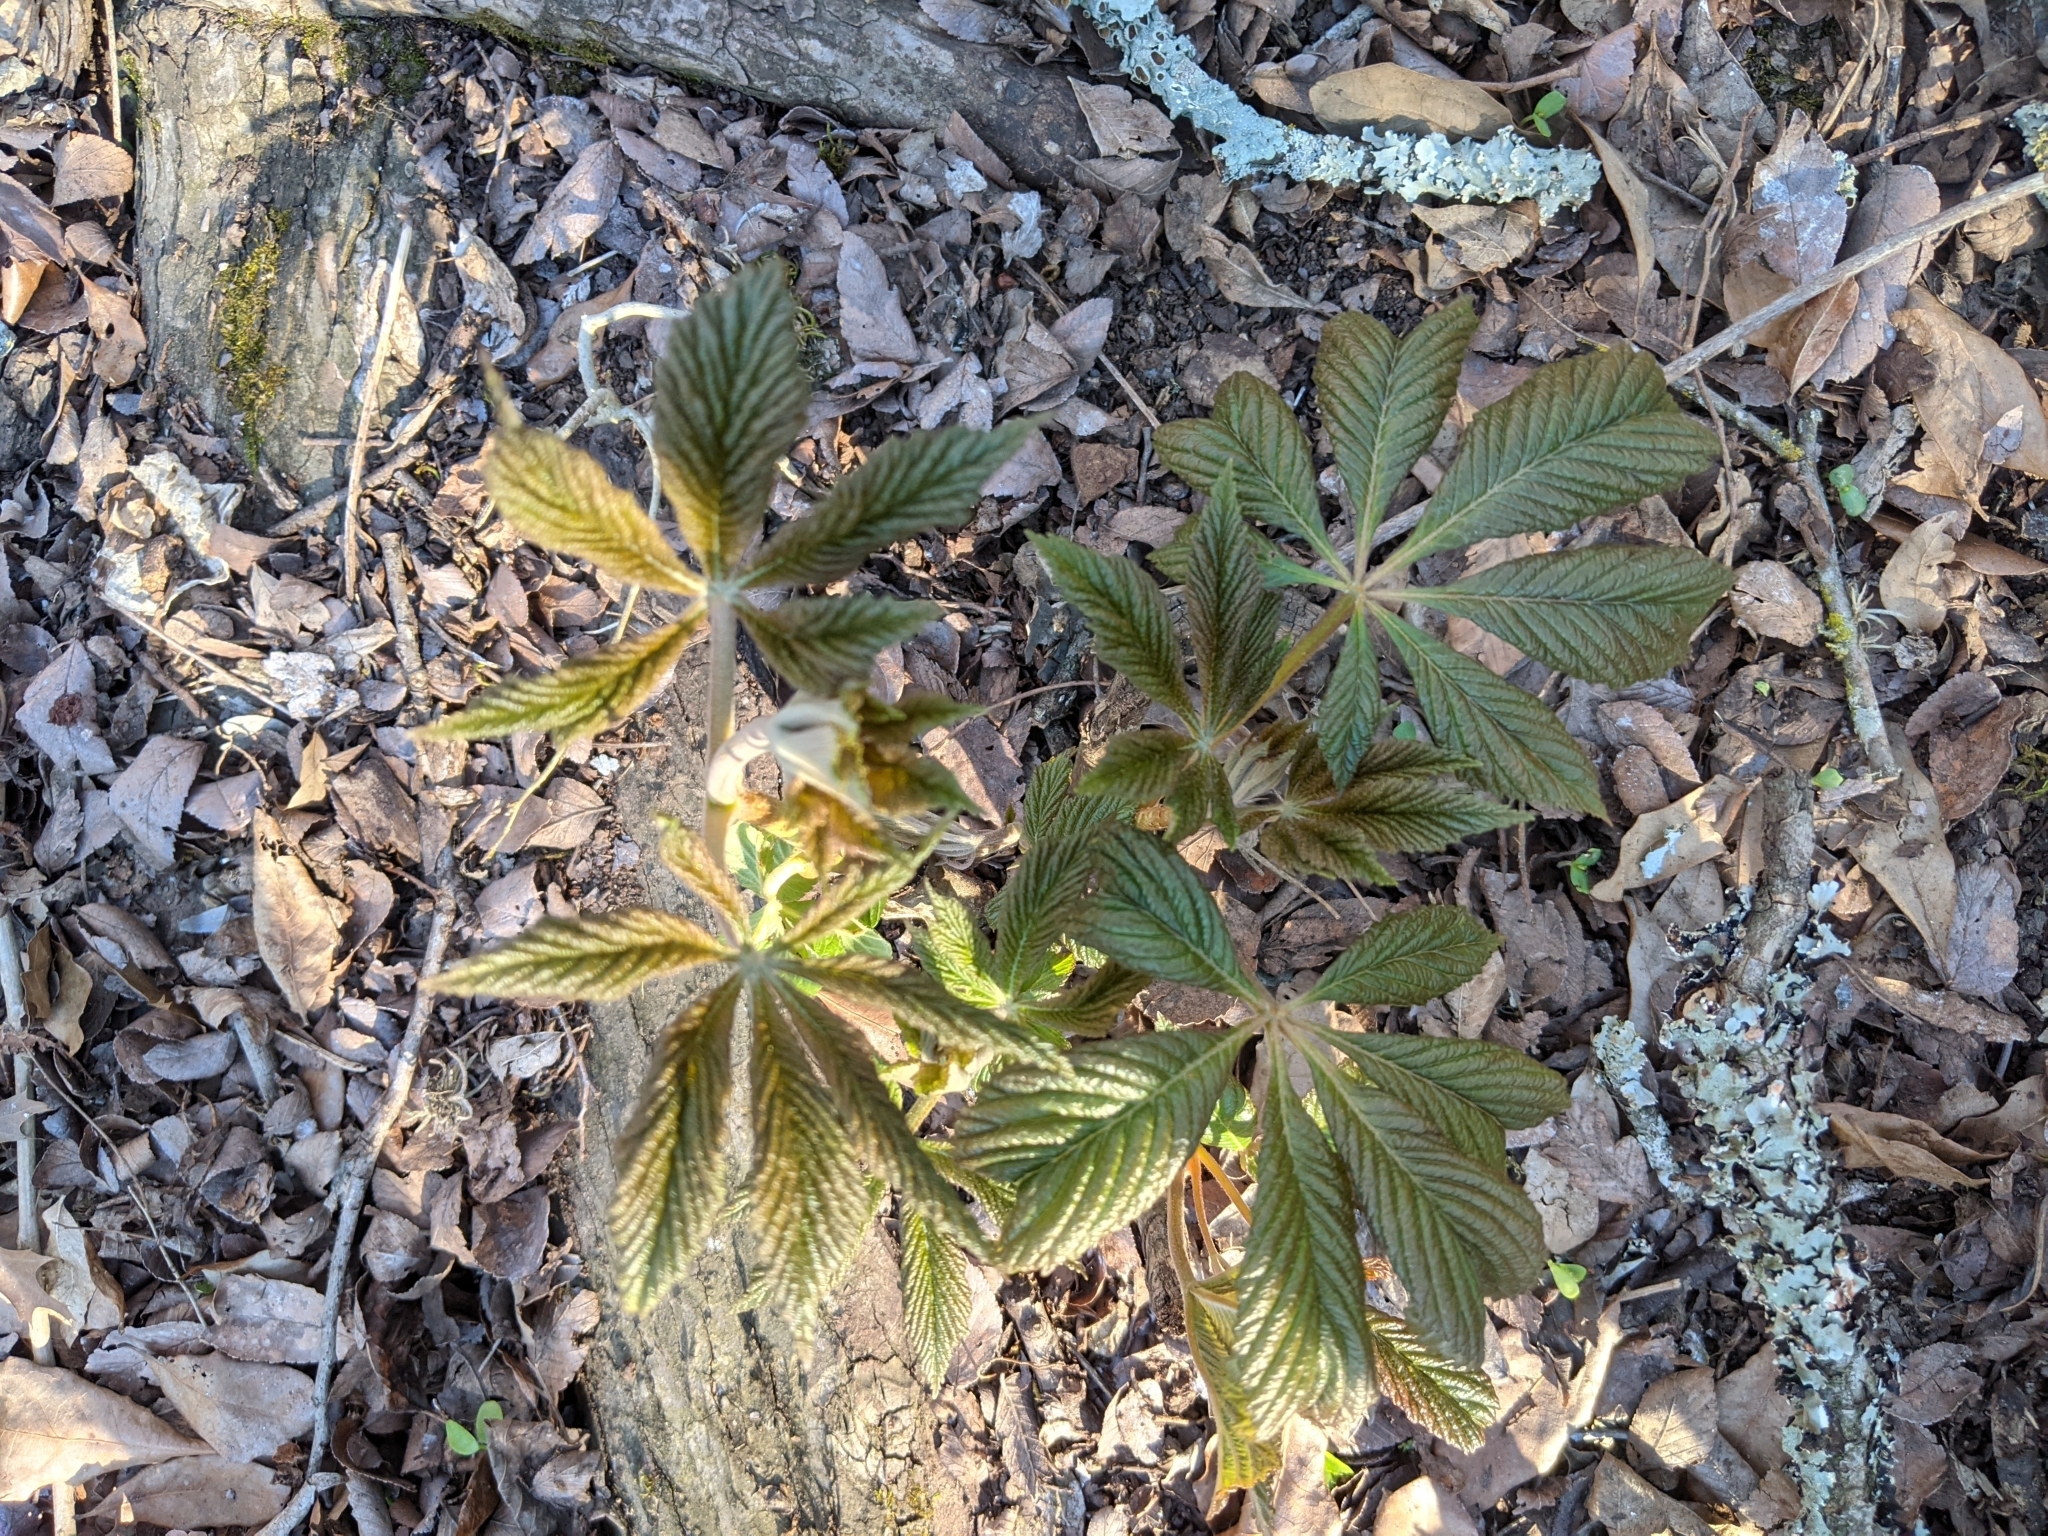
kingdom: Plantae
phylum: Tracheophyta
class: Magnoliopsida
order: Sapindales
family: Sapindaceae
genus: Aesculus
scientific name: Aesculus pavia
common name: Red buckeye
